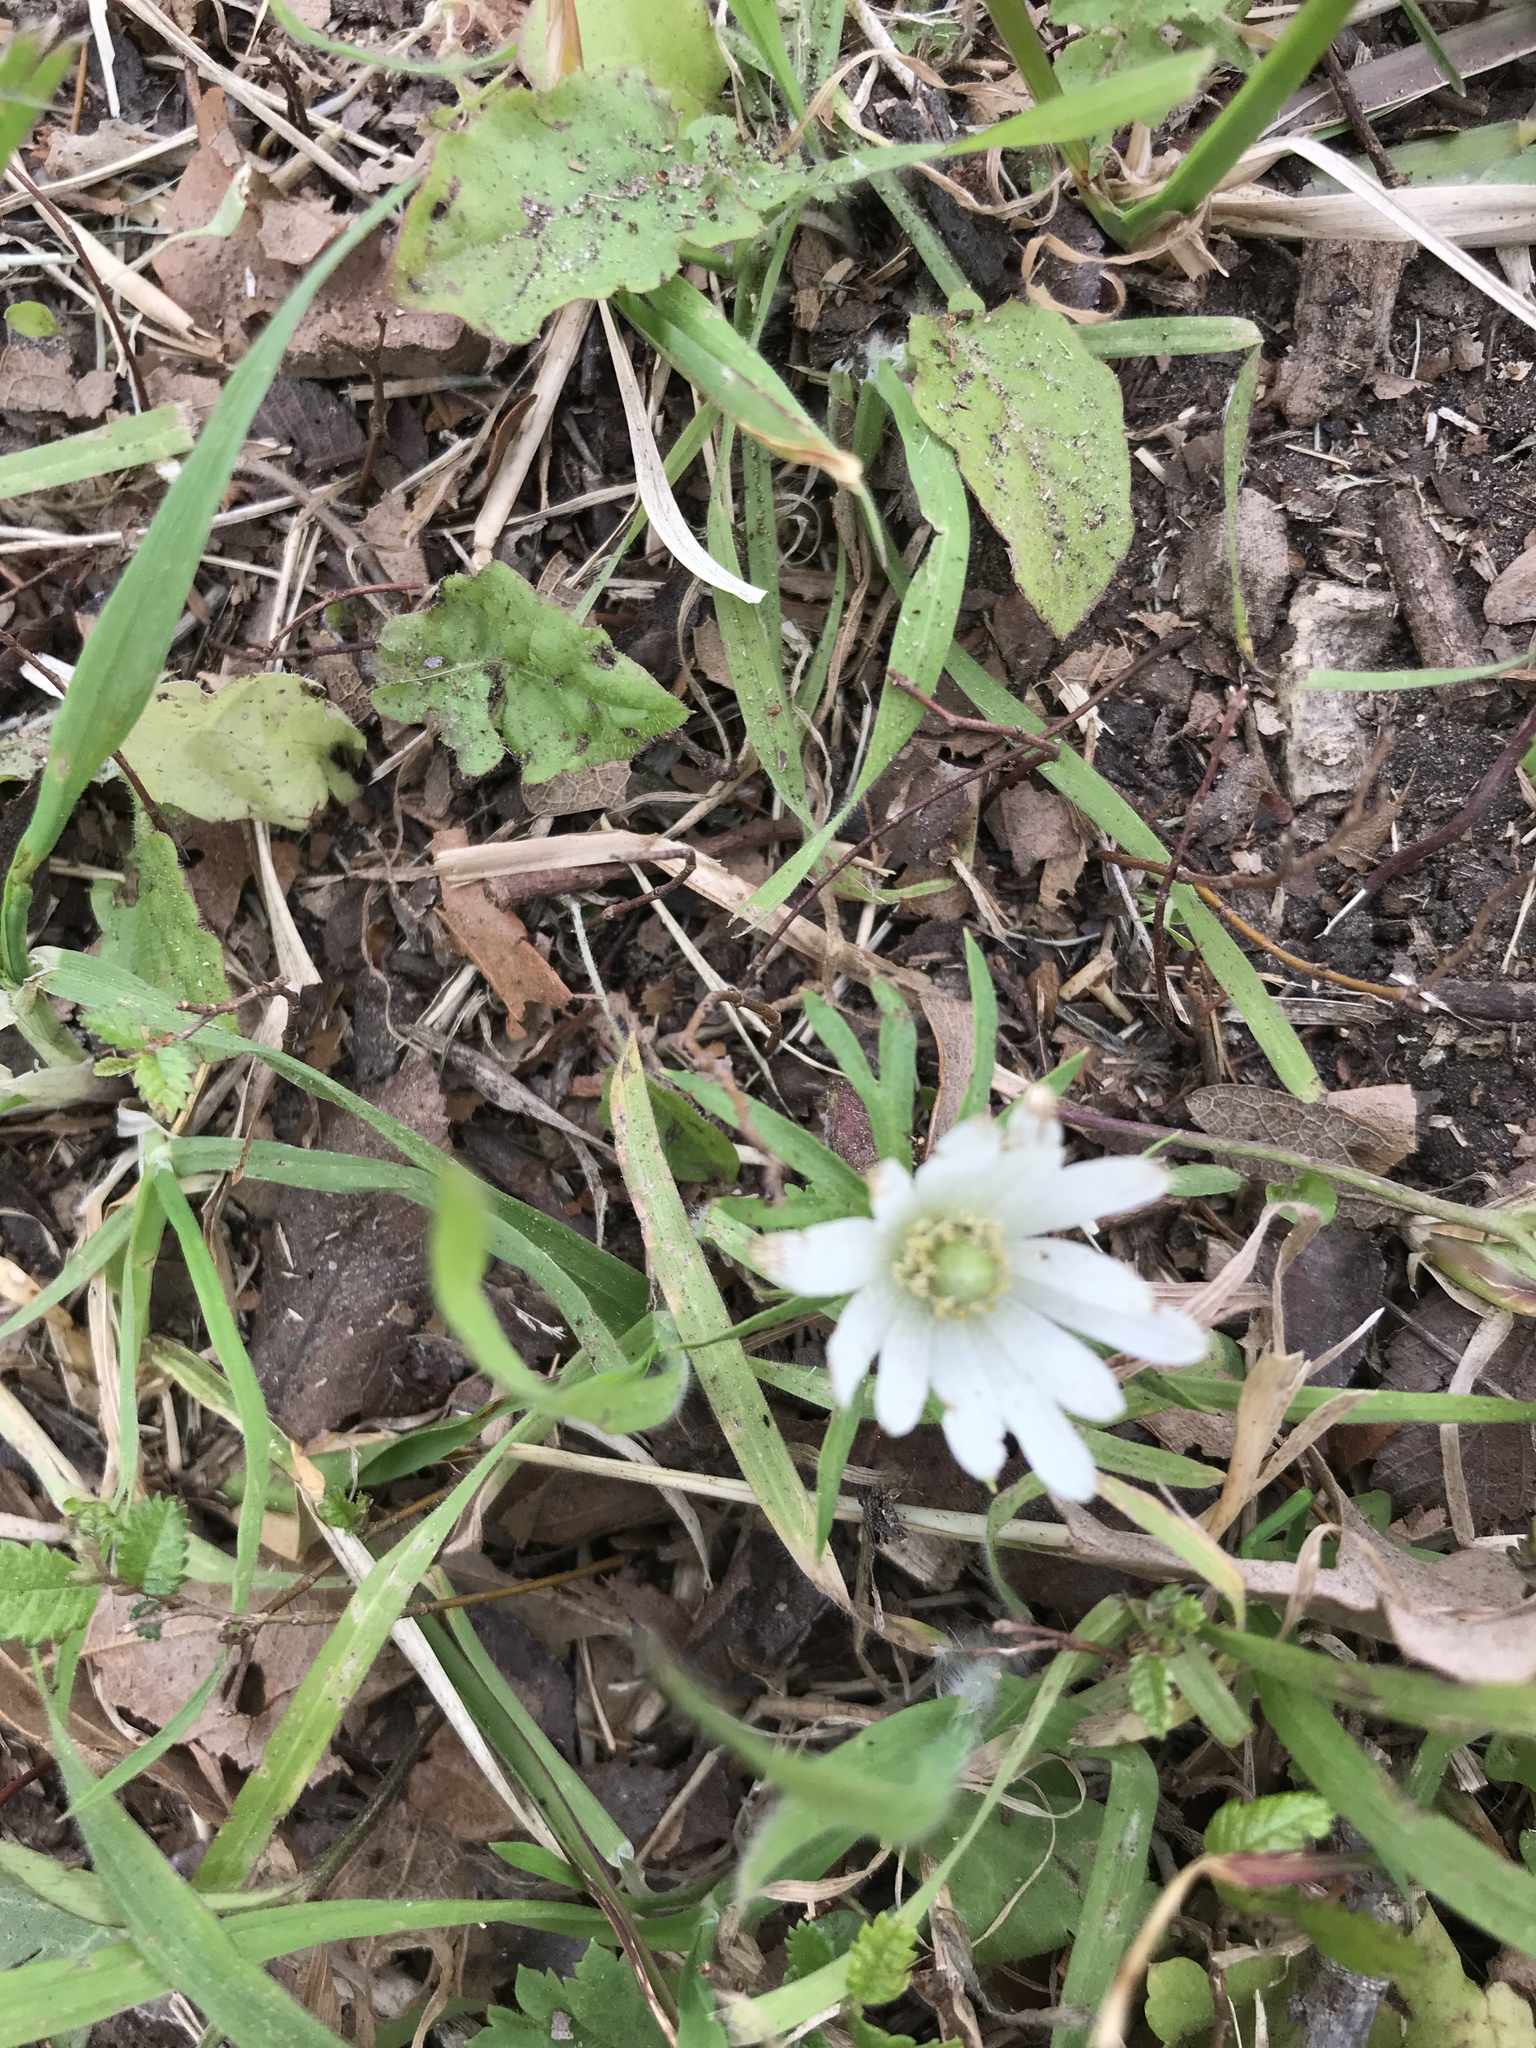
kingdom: Plantae
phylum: Tracheophyta
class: Magnoliopsida
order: Ranunculales
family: Ranunculaceae
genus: Anemone
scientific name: Anemone berlandieri
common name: Ten-petal anemone
